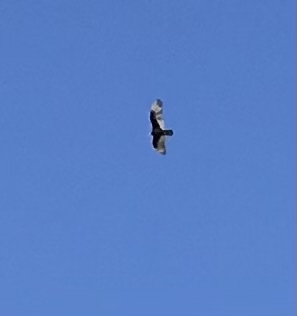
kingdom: Animalia
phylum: Chordata
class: Aves
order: Accipitriformes
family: Cathartidae
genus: Cathartes
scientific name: Cathartes aura
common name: Turkey vulture
